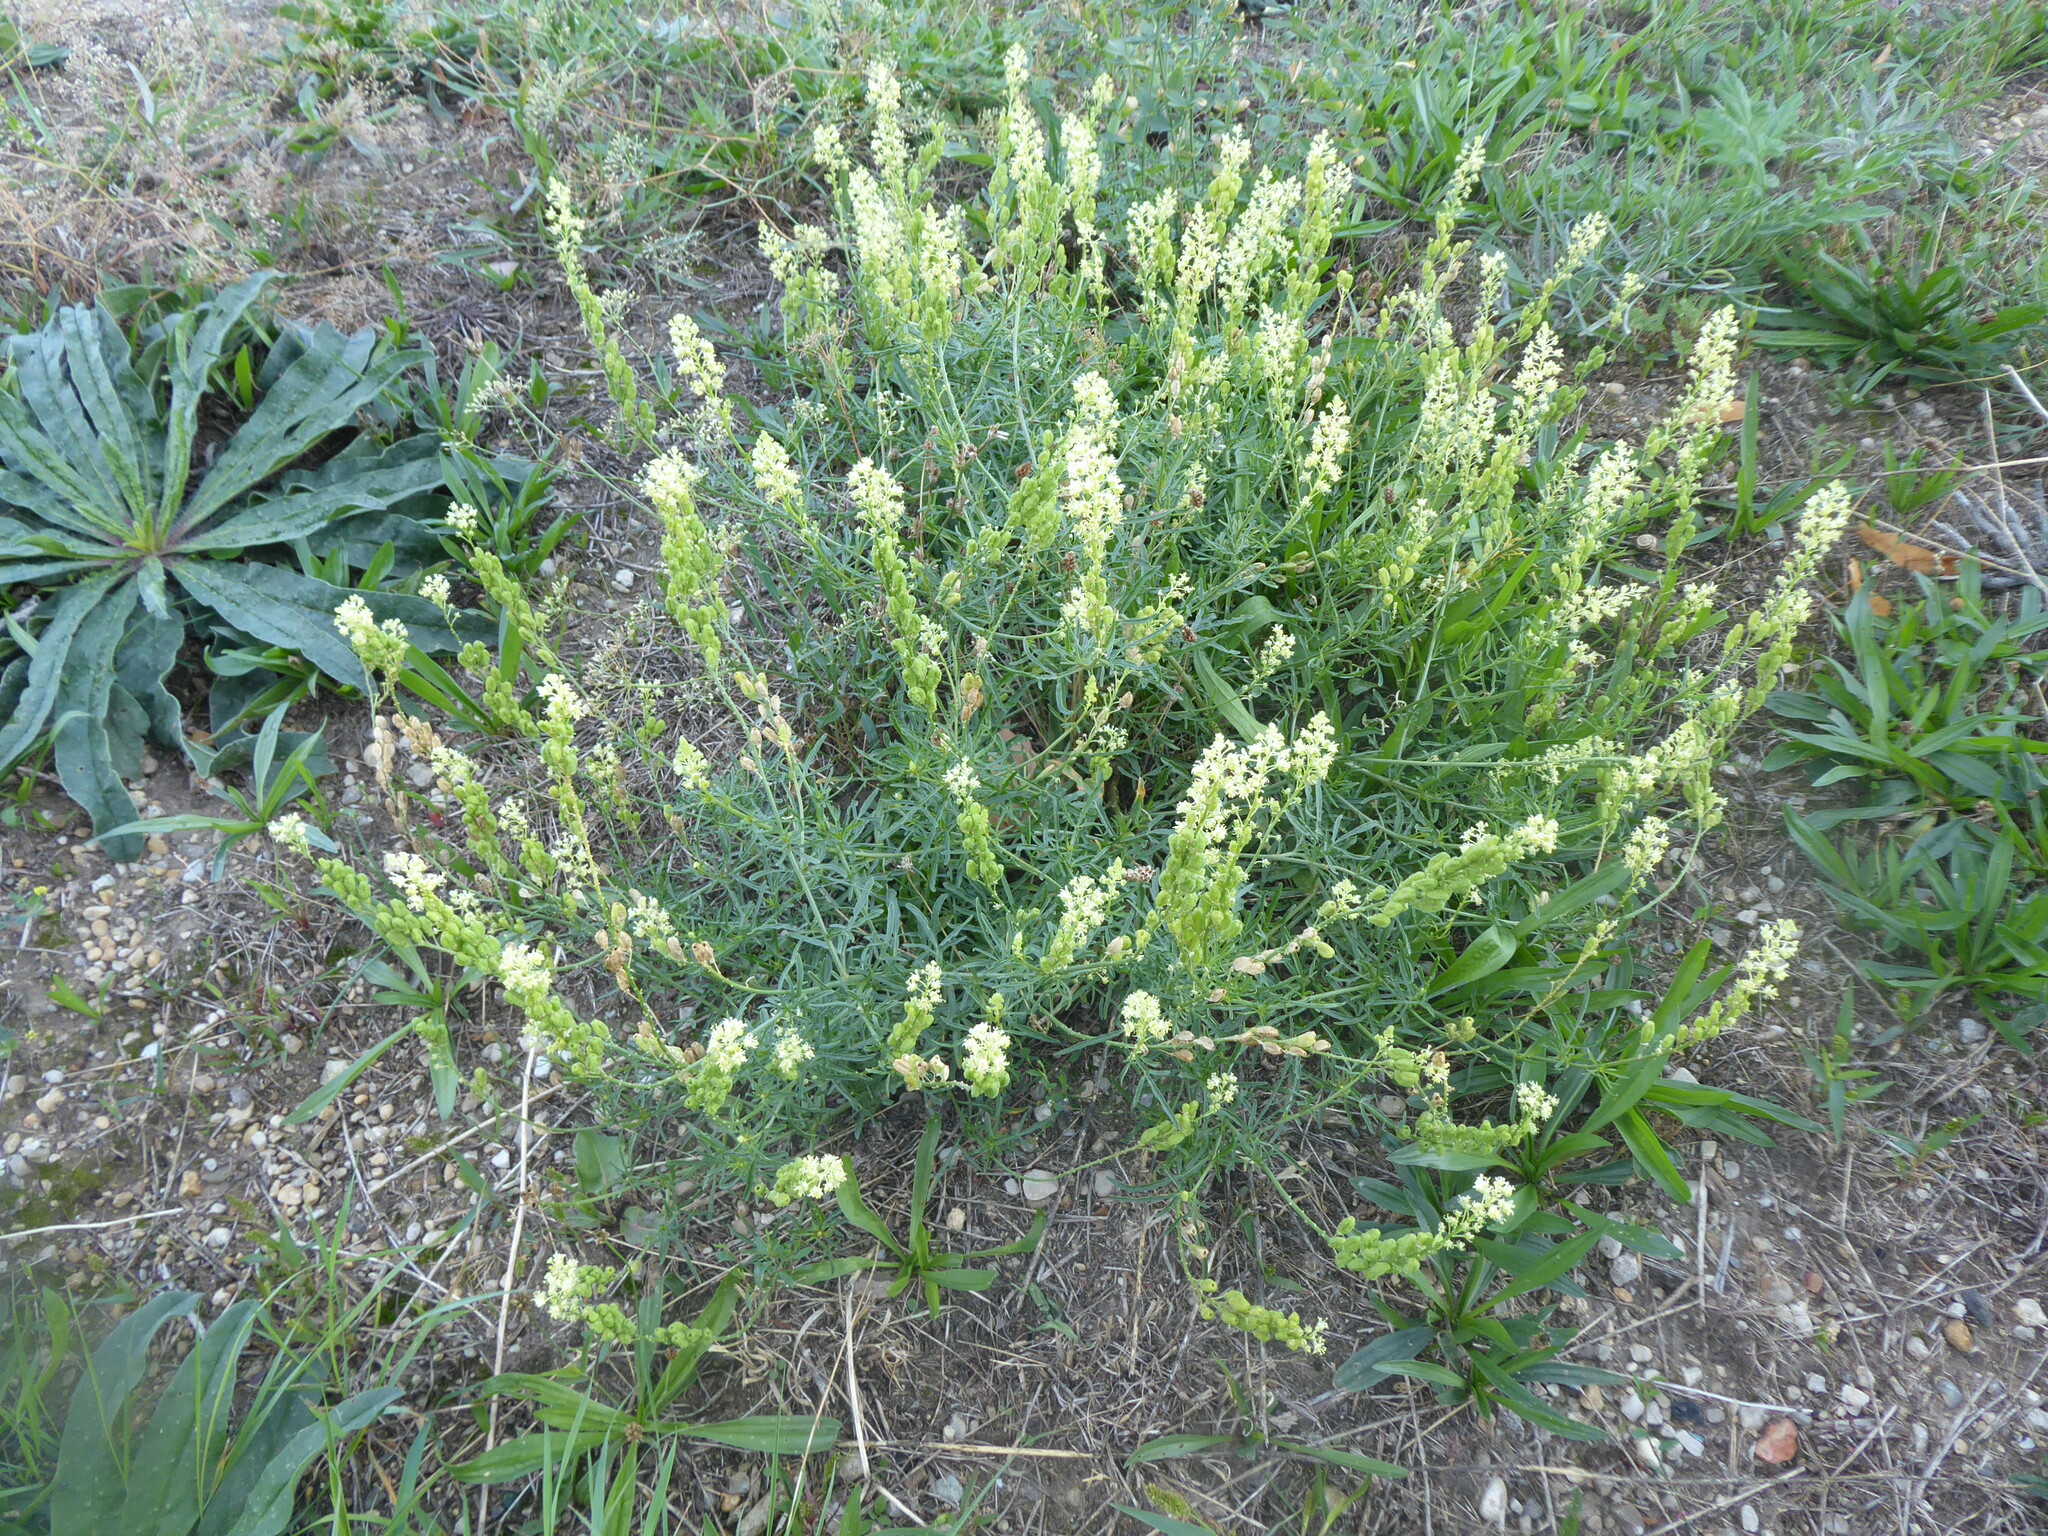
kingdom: Plantae
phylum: Tracheophyta
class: Magnoliopsida
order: Brassicales
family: Resedaceae
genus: Reseda
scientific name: Reseda lutea
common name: Wild mignonette
